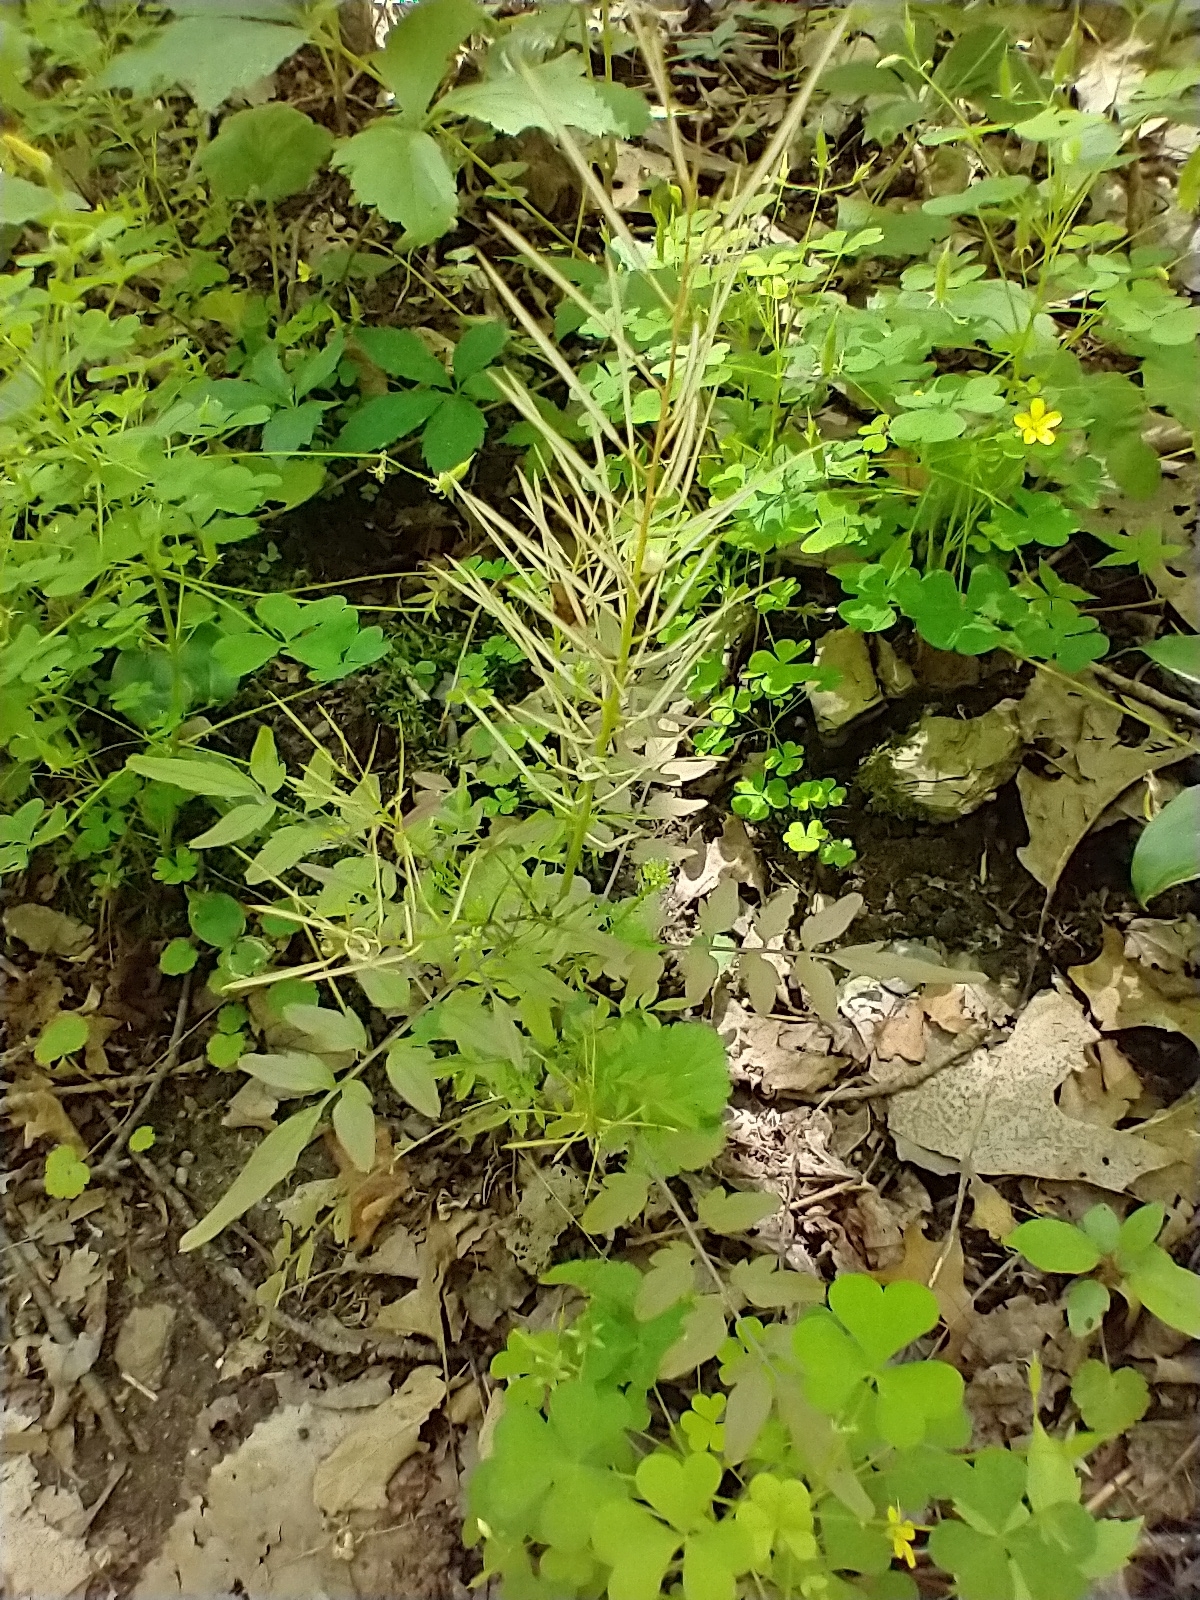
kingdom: Plantae
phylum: Tracheophyta
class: Magnoliopsida
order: Brassicales
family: Brassicaceae
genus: Cardamine
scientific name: Cardamine impatiens
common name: Narrow-leaved bitter-cress
